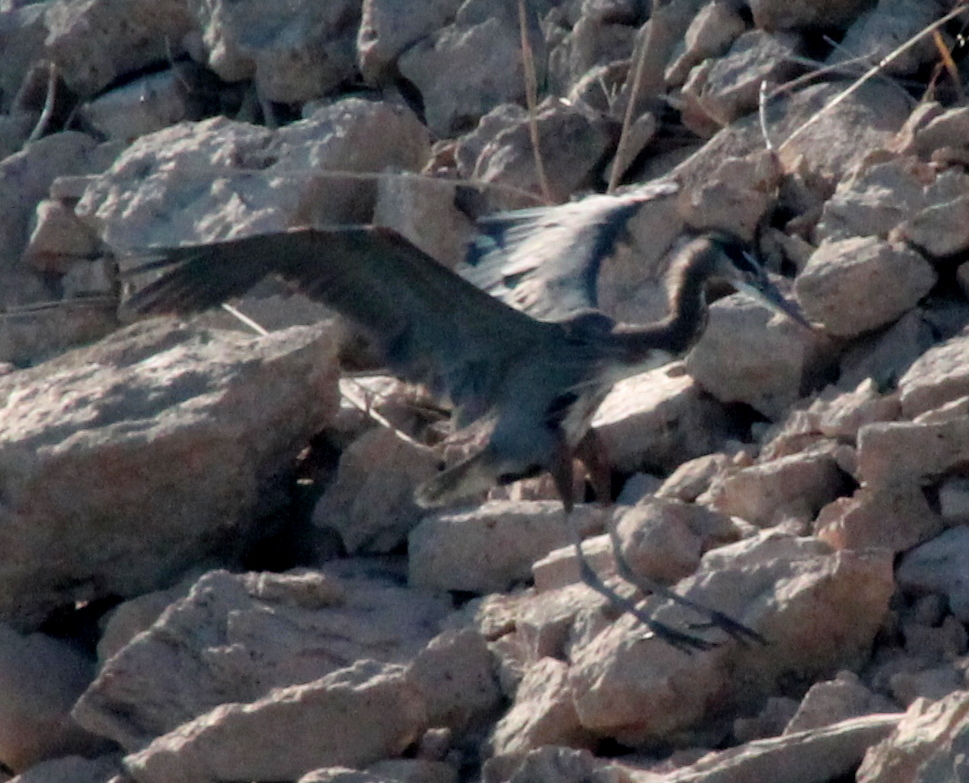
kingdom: Animalia
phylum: Chordata
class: Aves
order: Pelecaniformes
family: Ardeidae
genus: Ardea
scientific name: Ardea herodias
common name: Great blue heron
